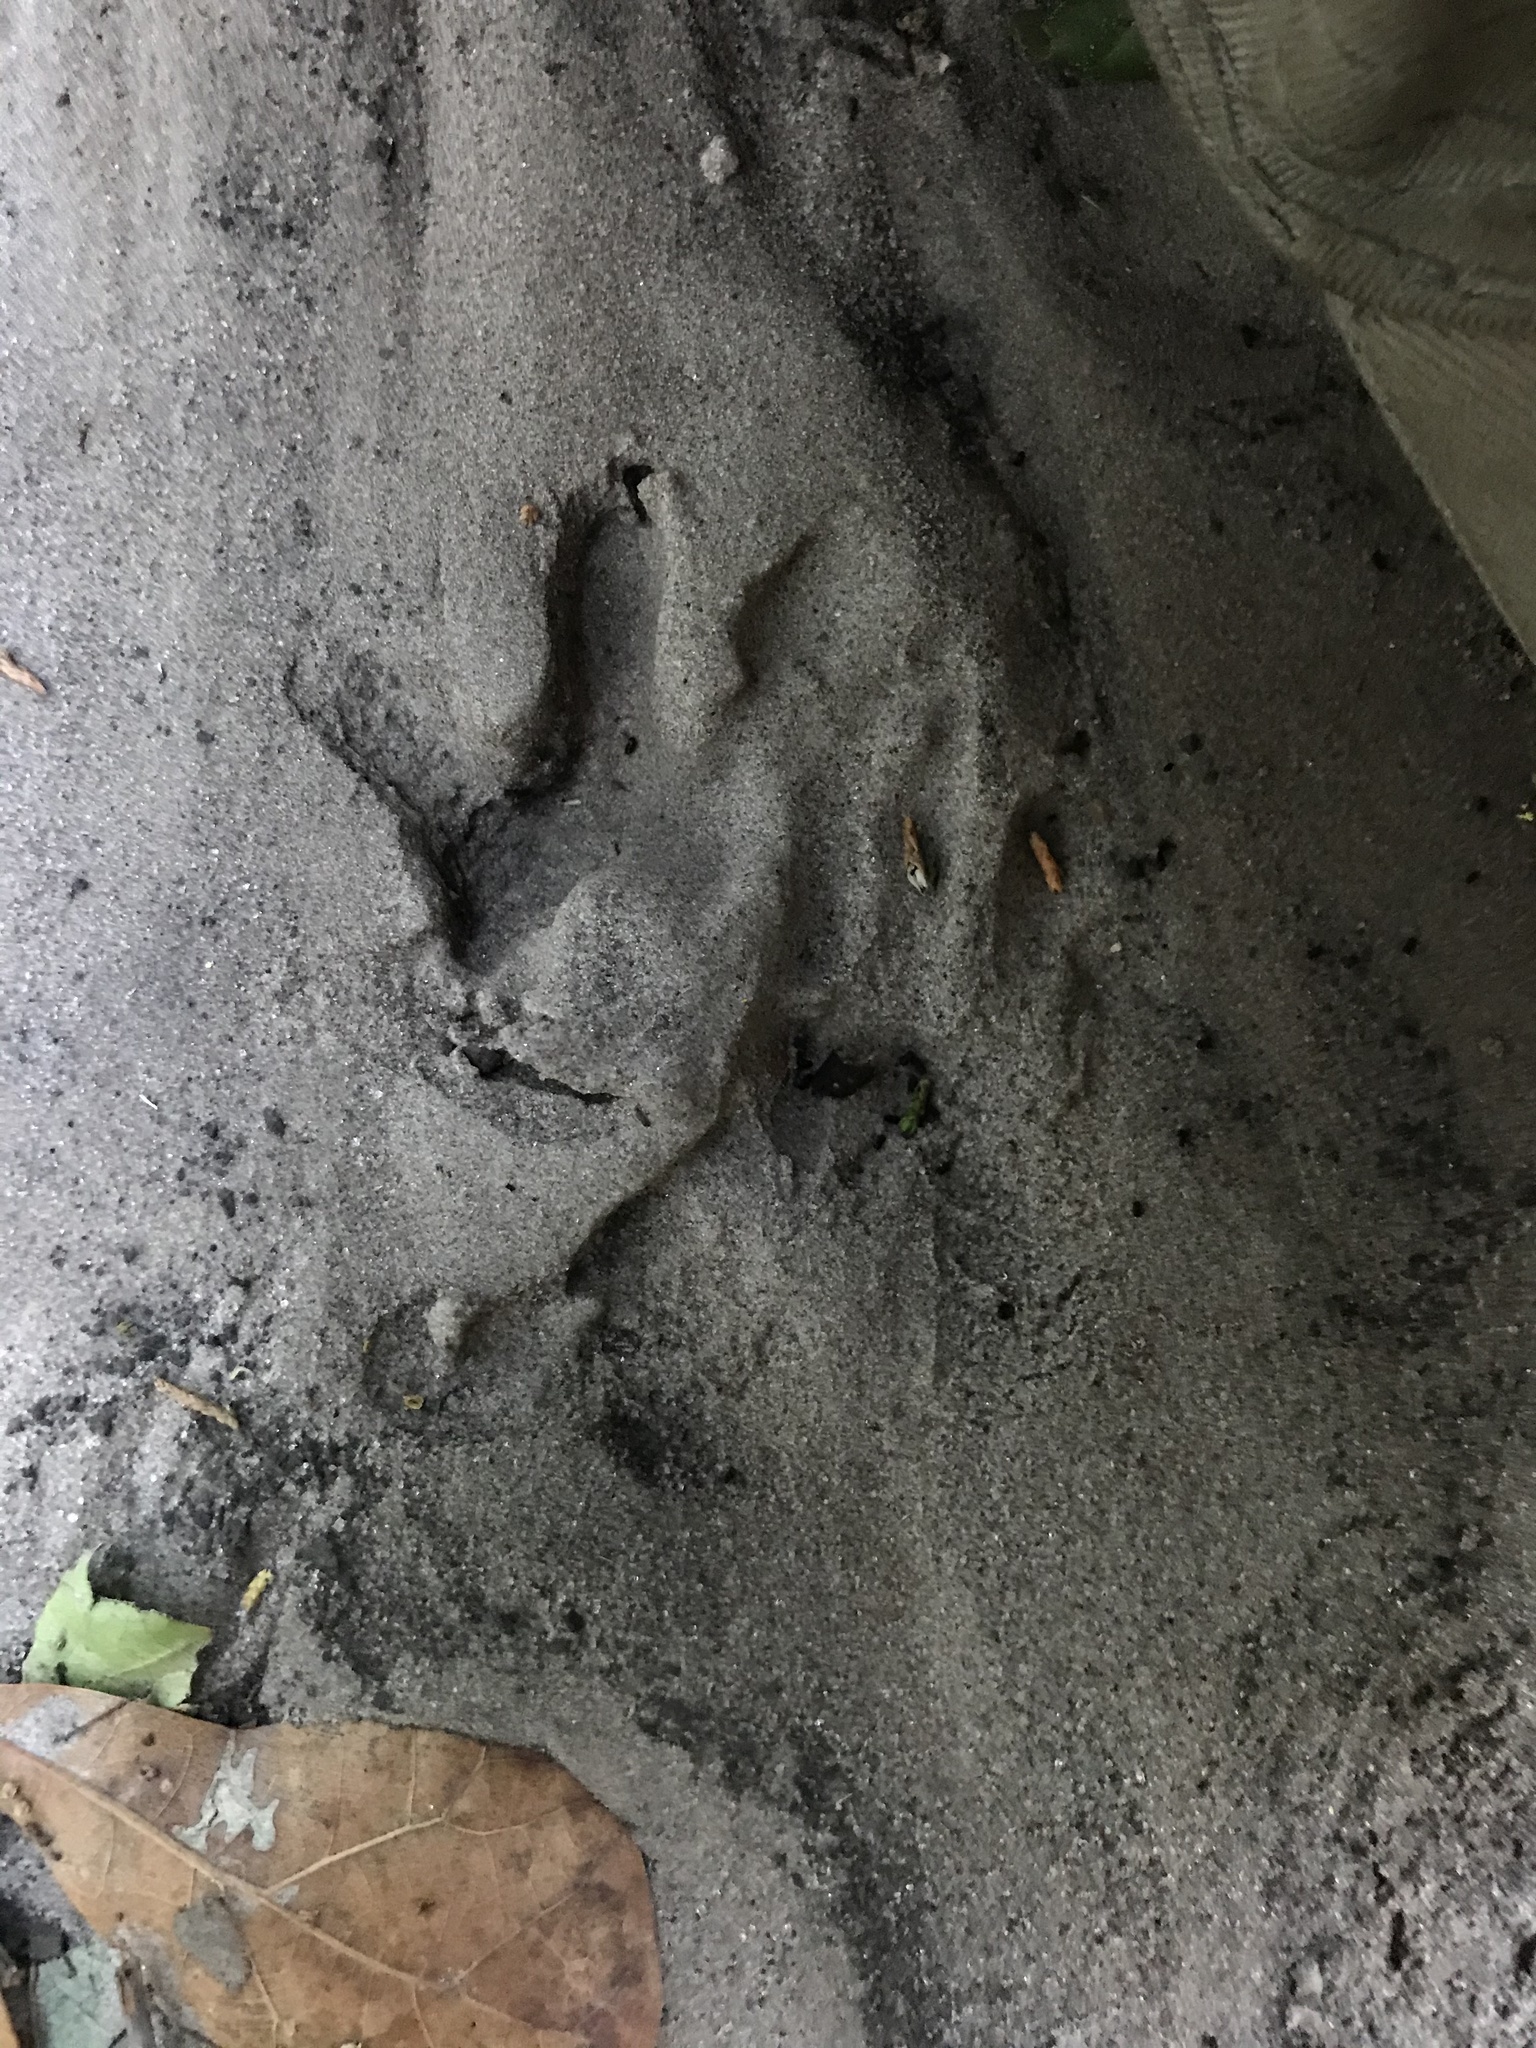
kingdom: Animalia
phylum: Chordata
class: Mammalia
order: Didelphimorphia
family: Didelphidae
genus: Didelphis
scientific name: Didelphis virginiana
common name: Virginia opossum
